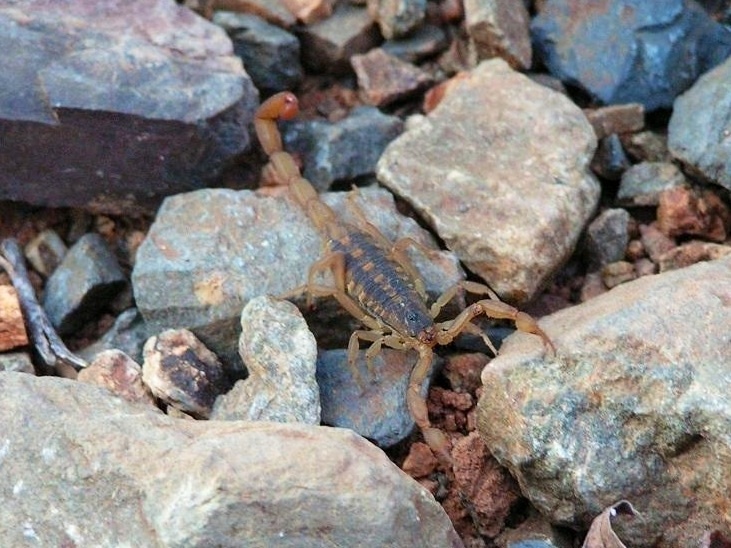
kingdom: Animalia
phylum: Arthropoda
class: Arachnida
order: Scorpiones
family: Buthidae
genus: Centruroides
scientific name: Centruroides
